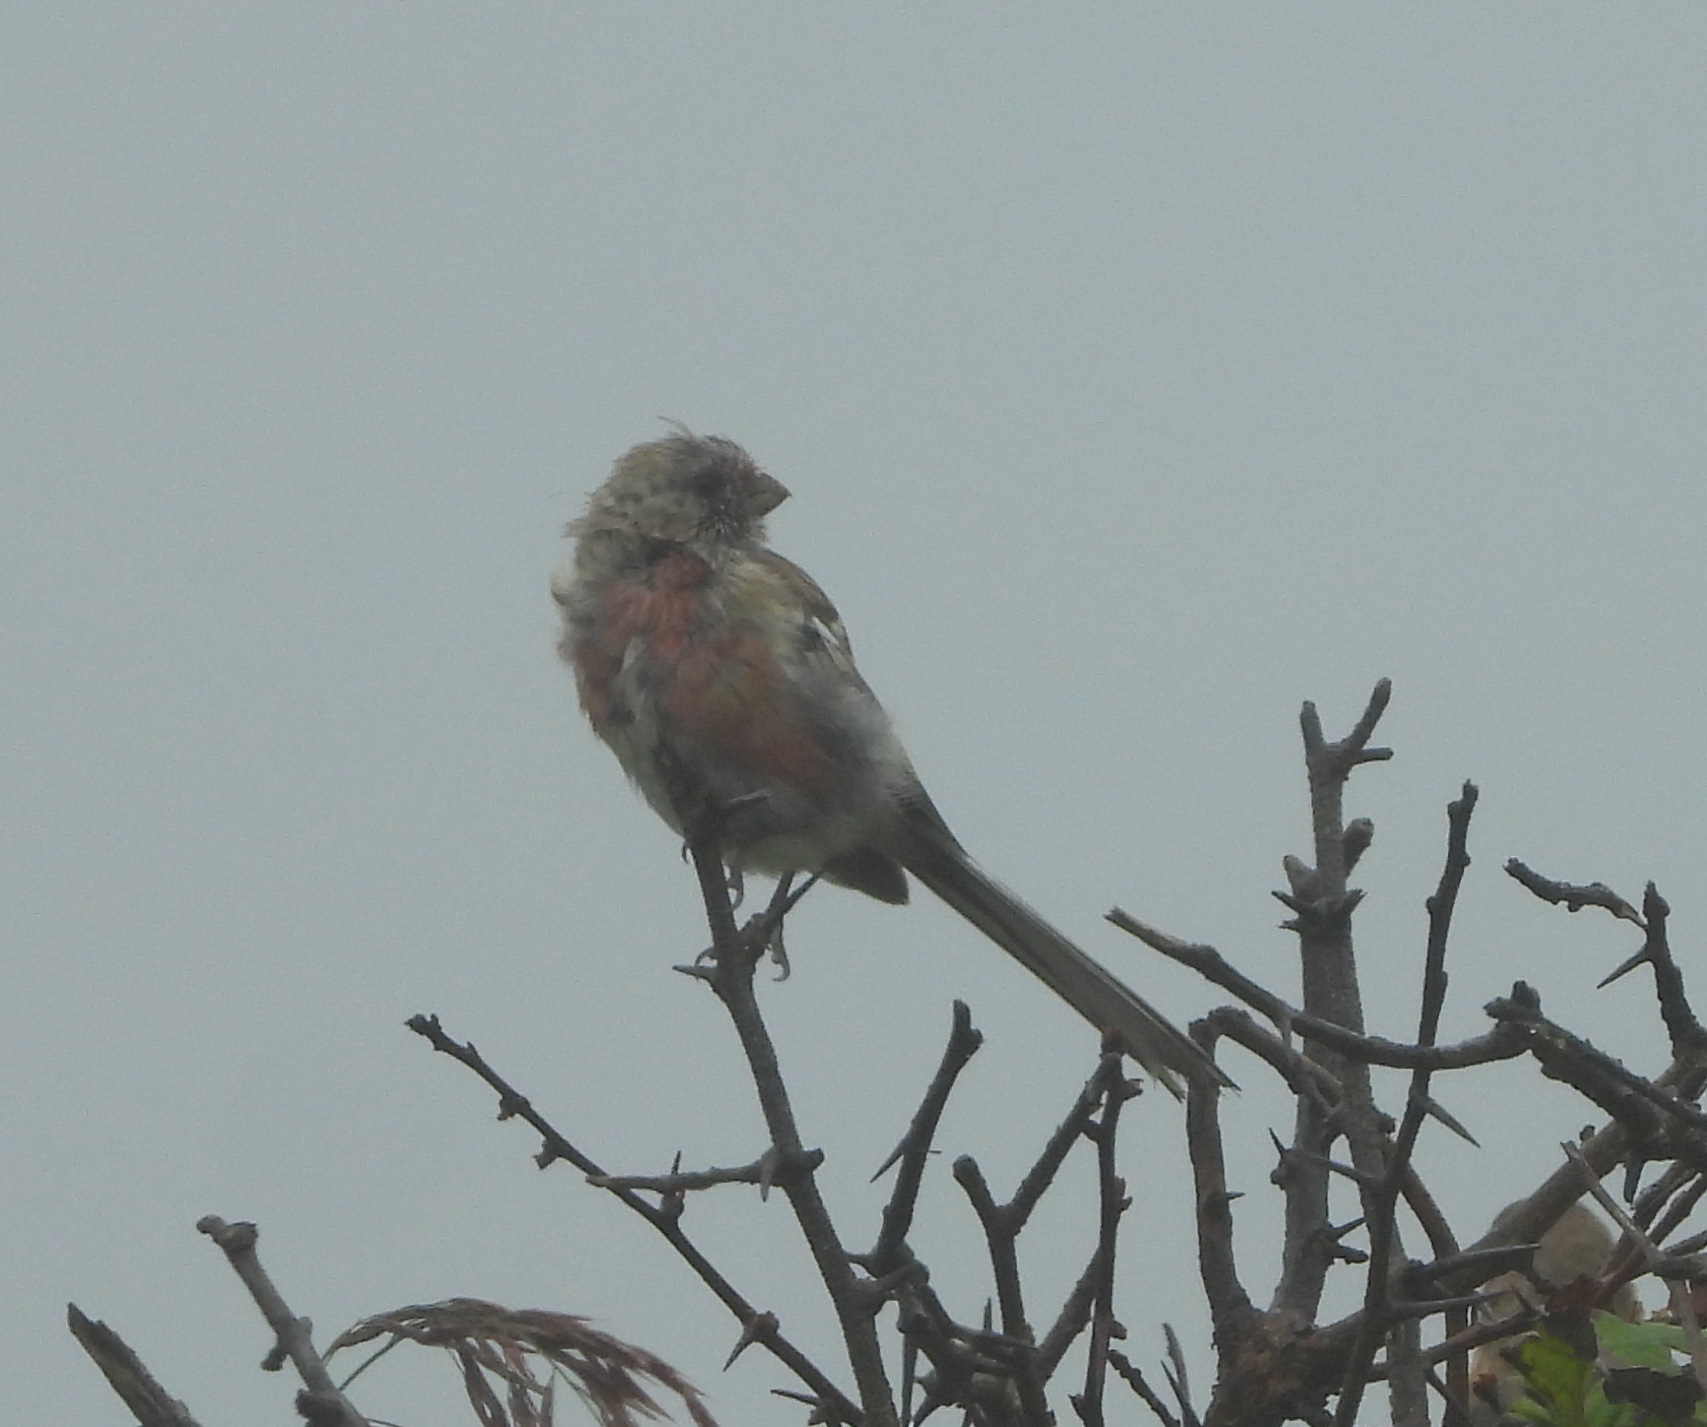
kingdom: Animalia
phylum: Chordata
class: Aves
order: Passeriformes
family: Fringillidae
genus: Carpodacus
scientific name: Carpodacus sibiricus
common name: Long-tailed rosefinch
